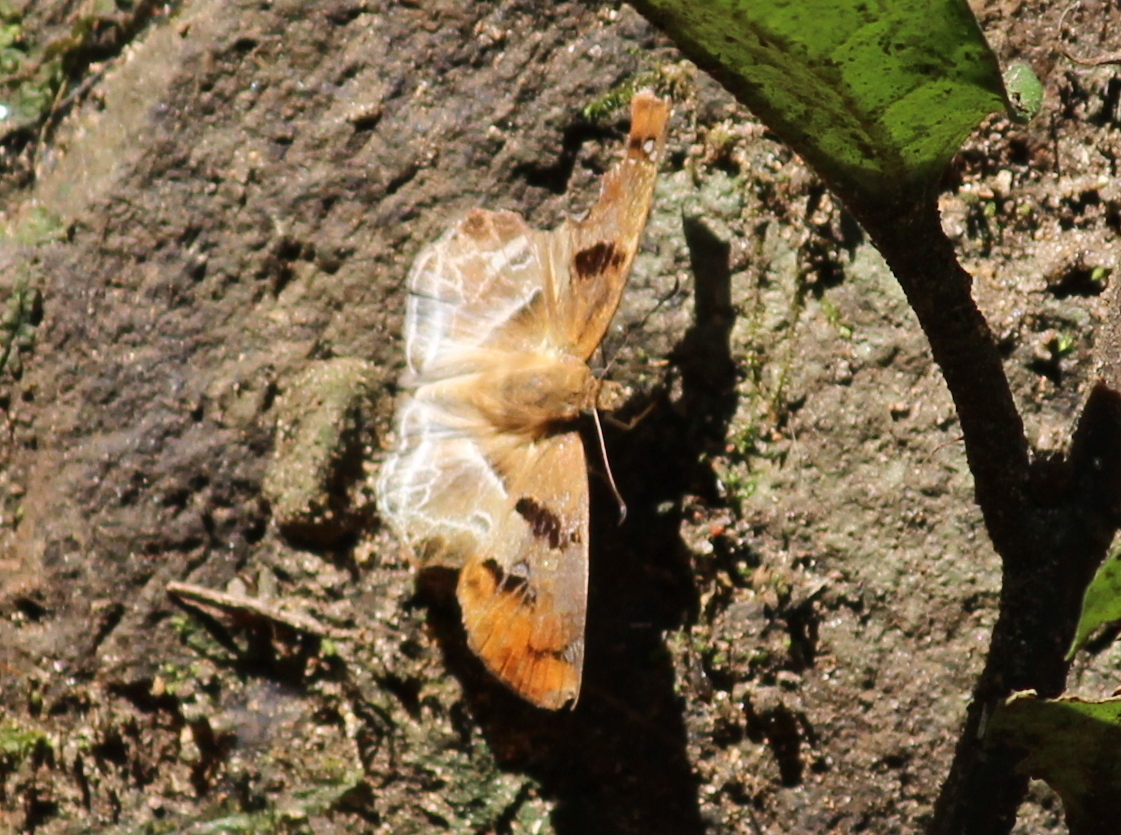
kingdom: Animalia
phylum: Arthropoda
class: Insecta
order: Lepidoptera
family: Hesperiidae
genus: Odontoptilum
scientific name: Odontoptilum angulata
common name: Chestnut banded angle
